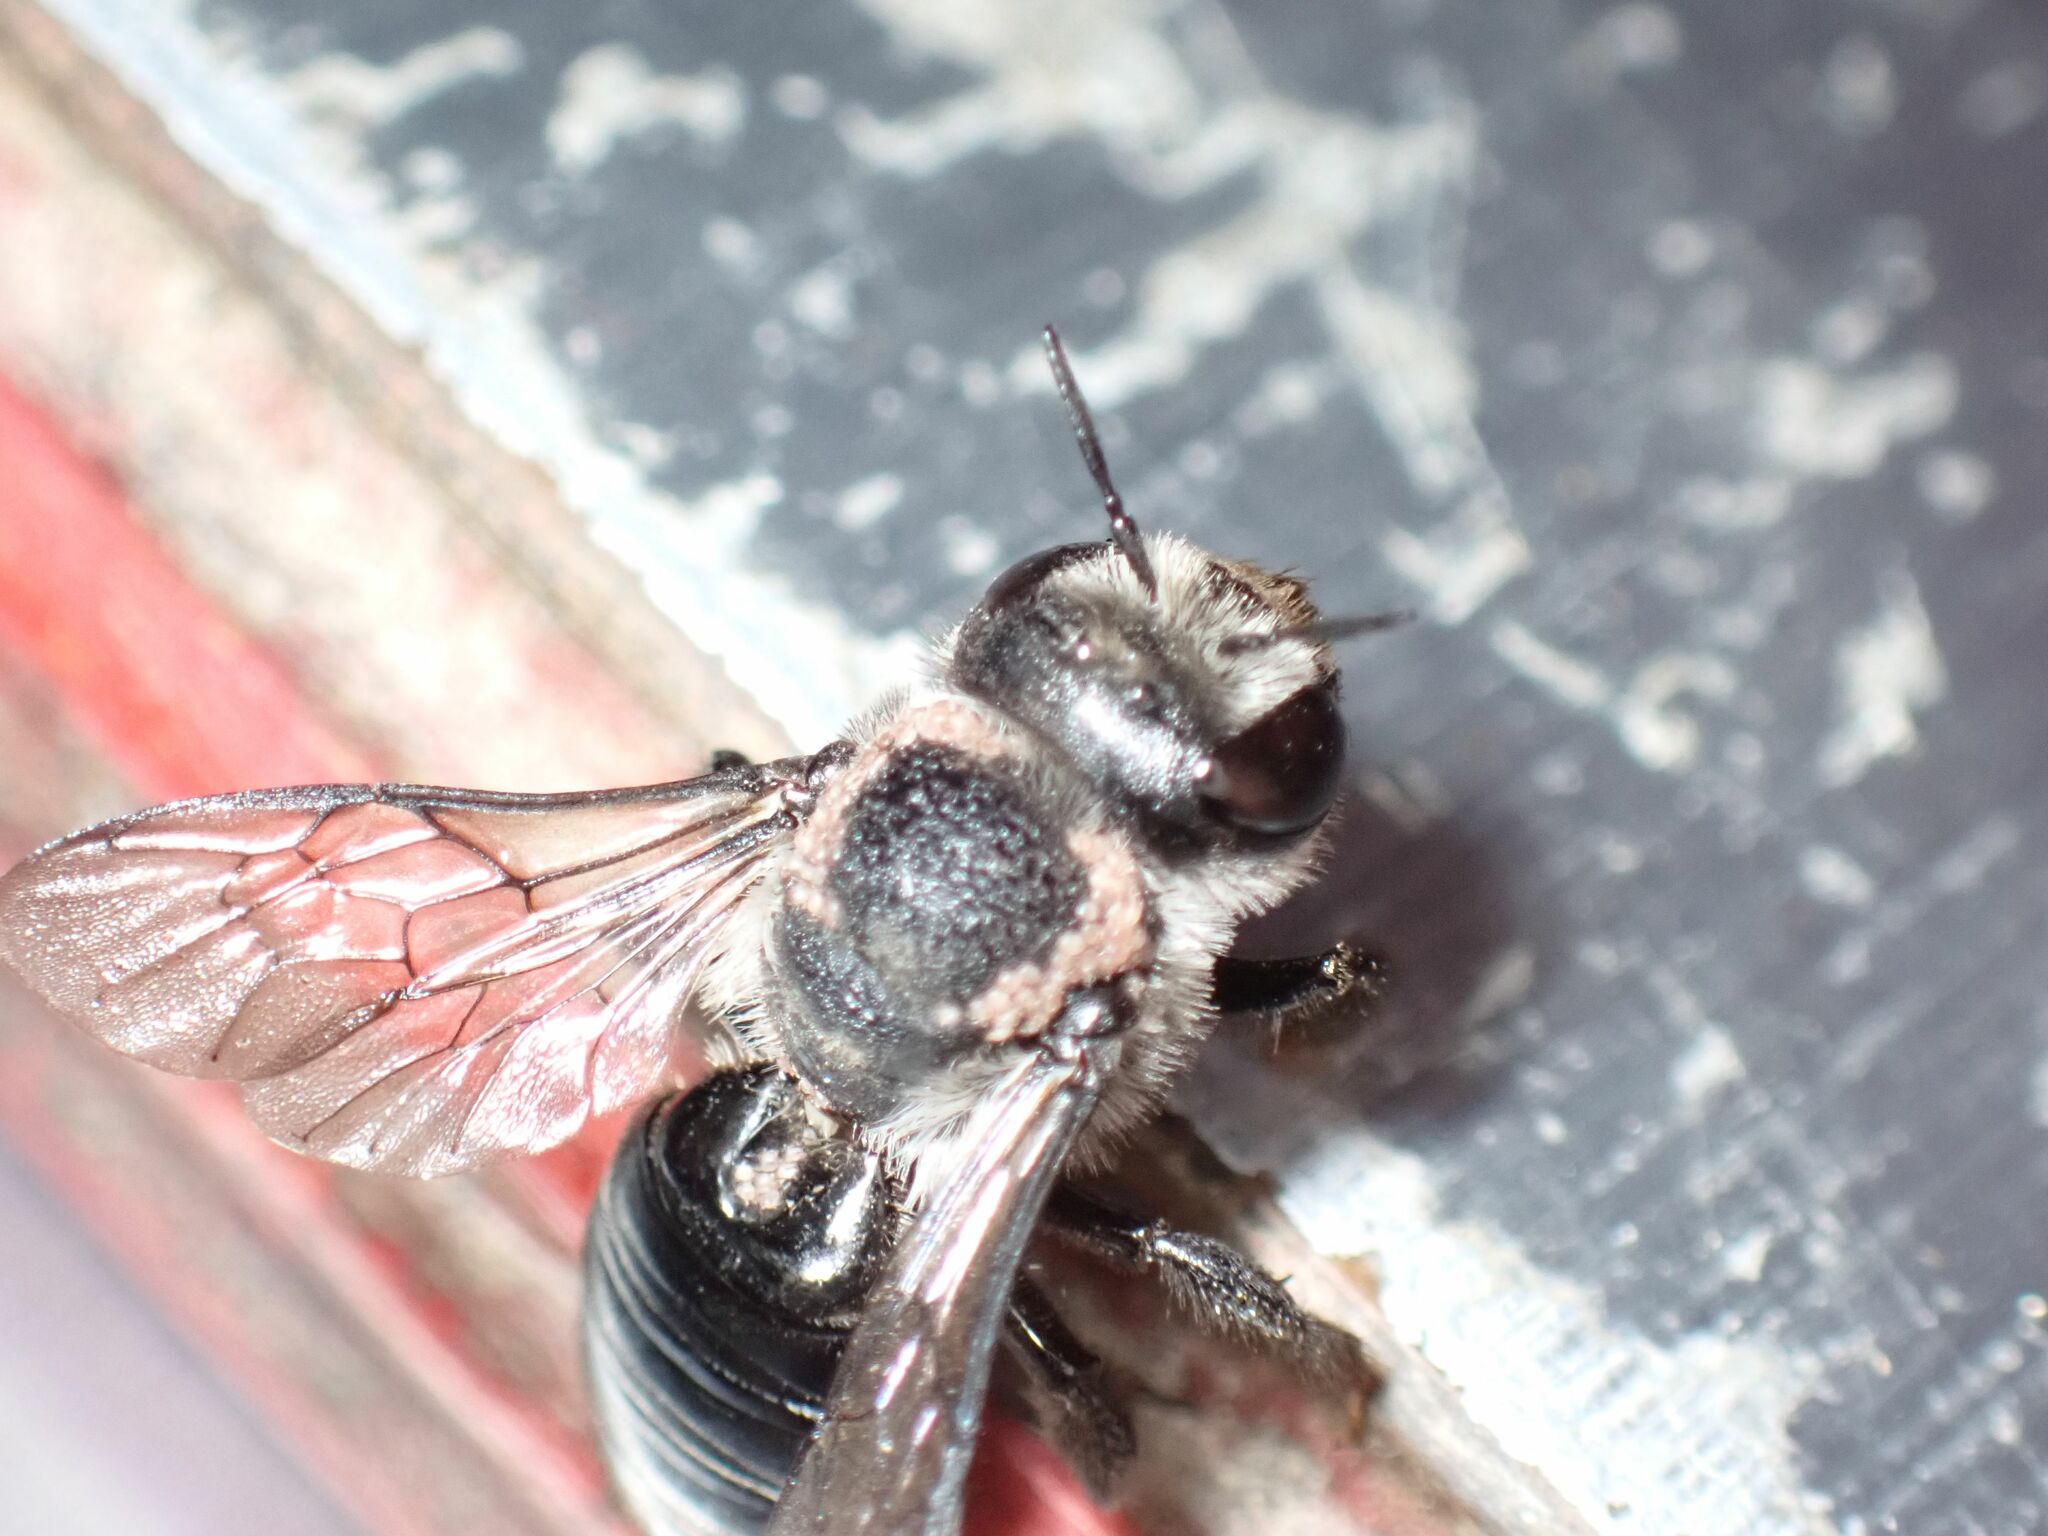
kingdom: Animalia
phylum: Arthropoda
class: Insecta
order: Hymenoptera
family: Megachilidae
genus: Lithurgus
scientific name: Lithurgus scabrosus
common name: Wood-nesting bee
